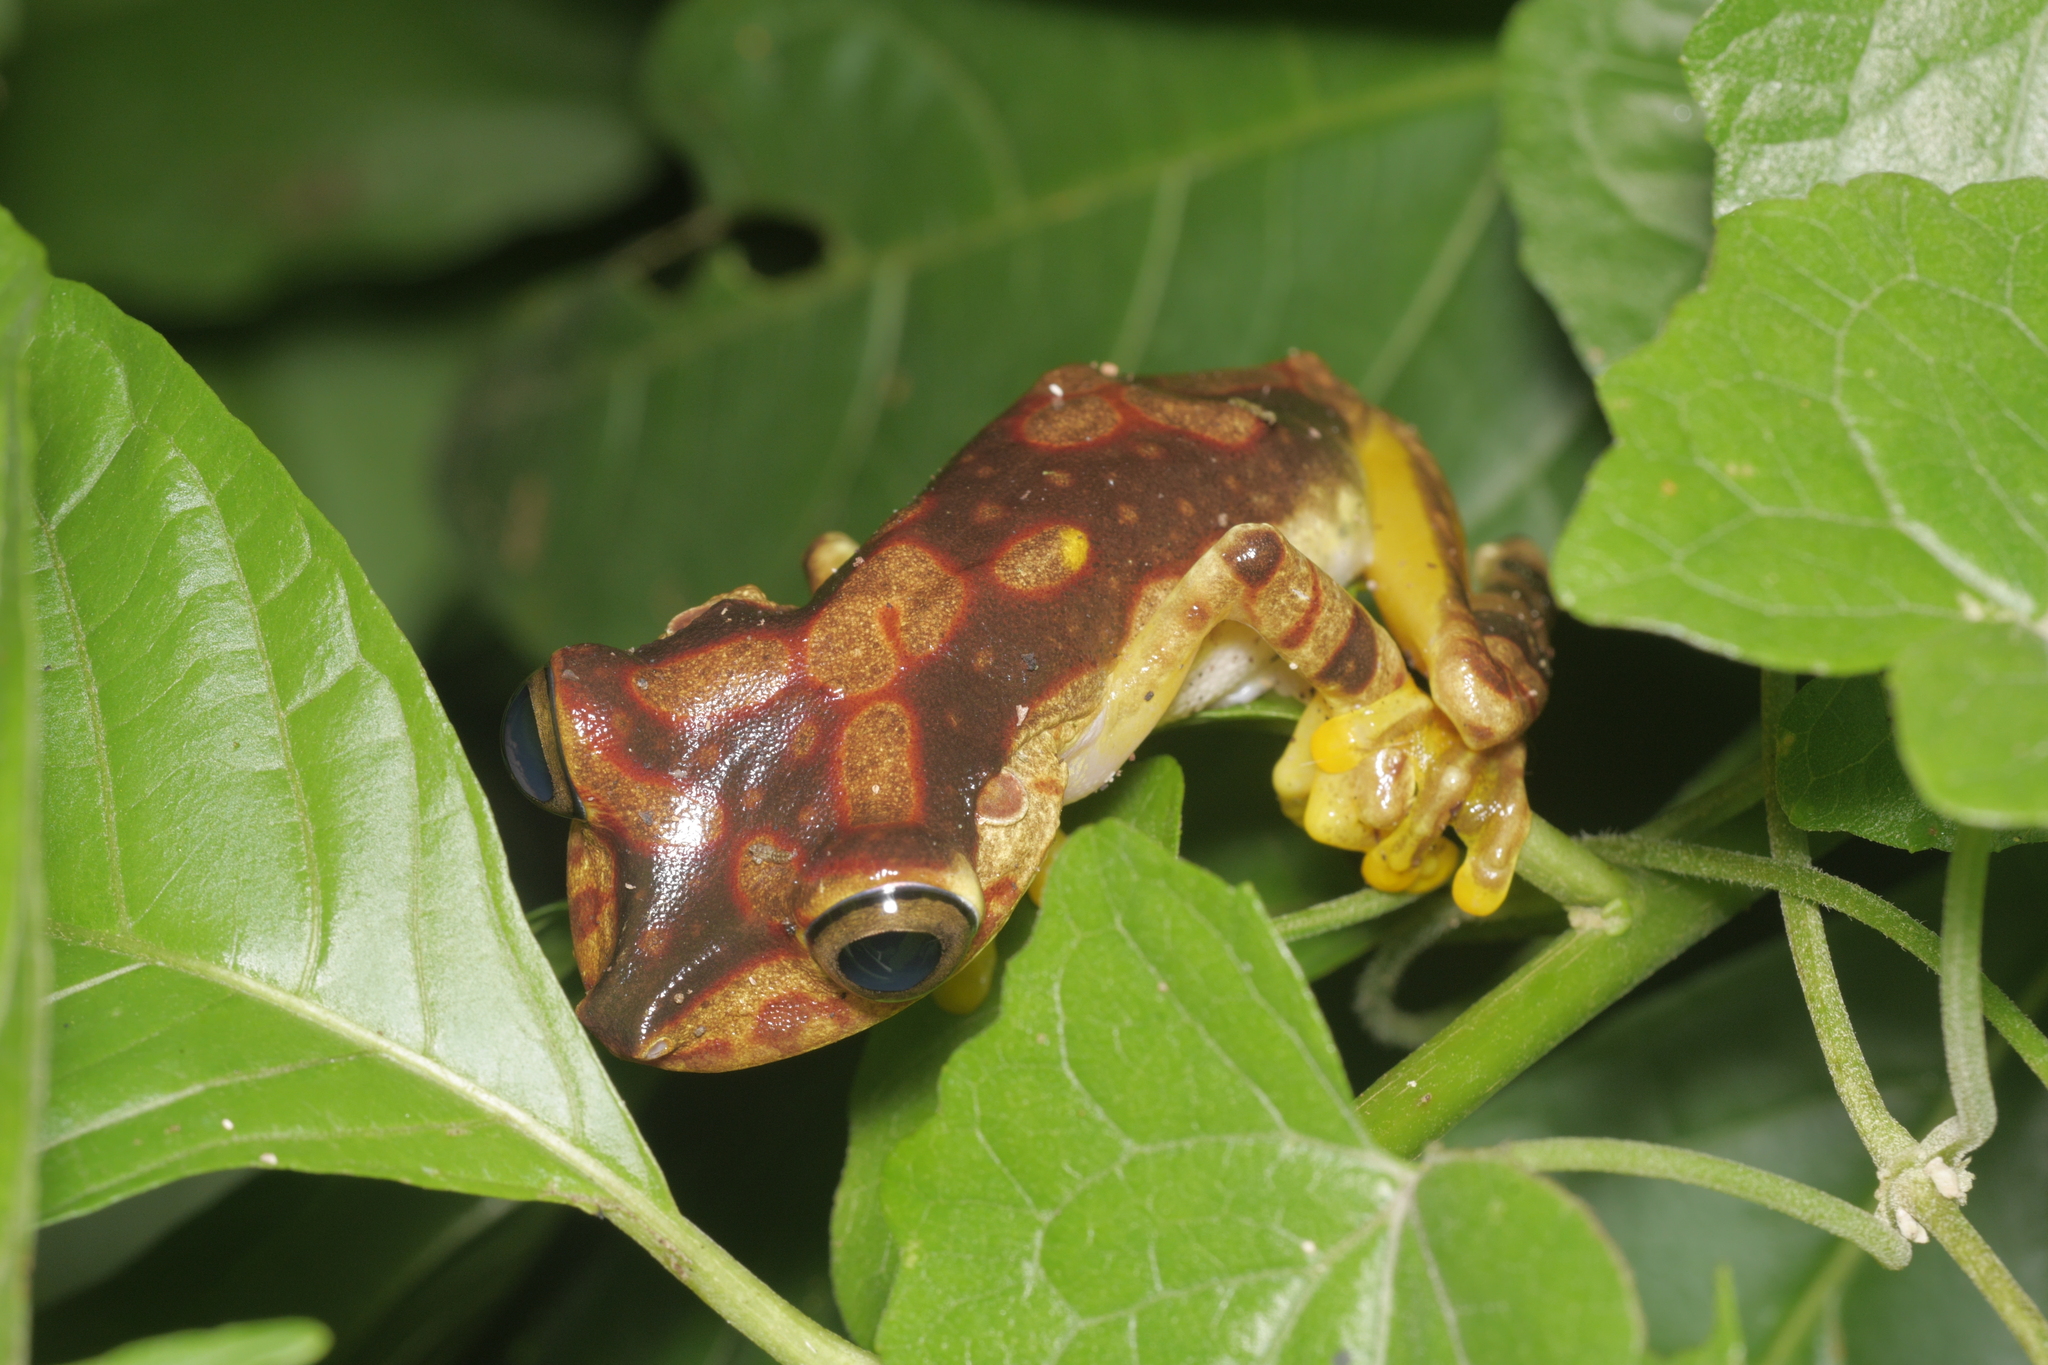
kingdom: Animalia
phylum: Chordata
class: Amphibia
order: Anura
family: Hylidae
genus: Boana
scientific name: Boana picturata
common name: Imbabura treefrog
